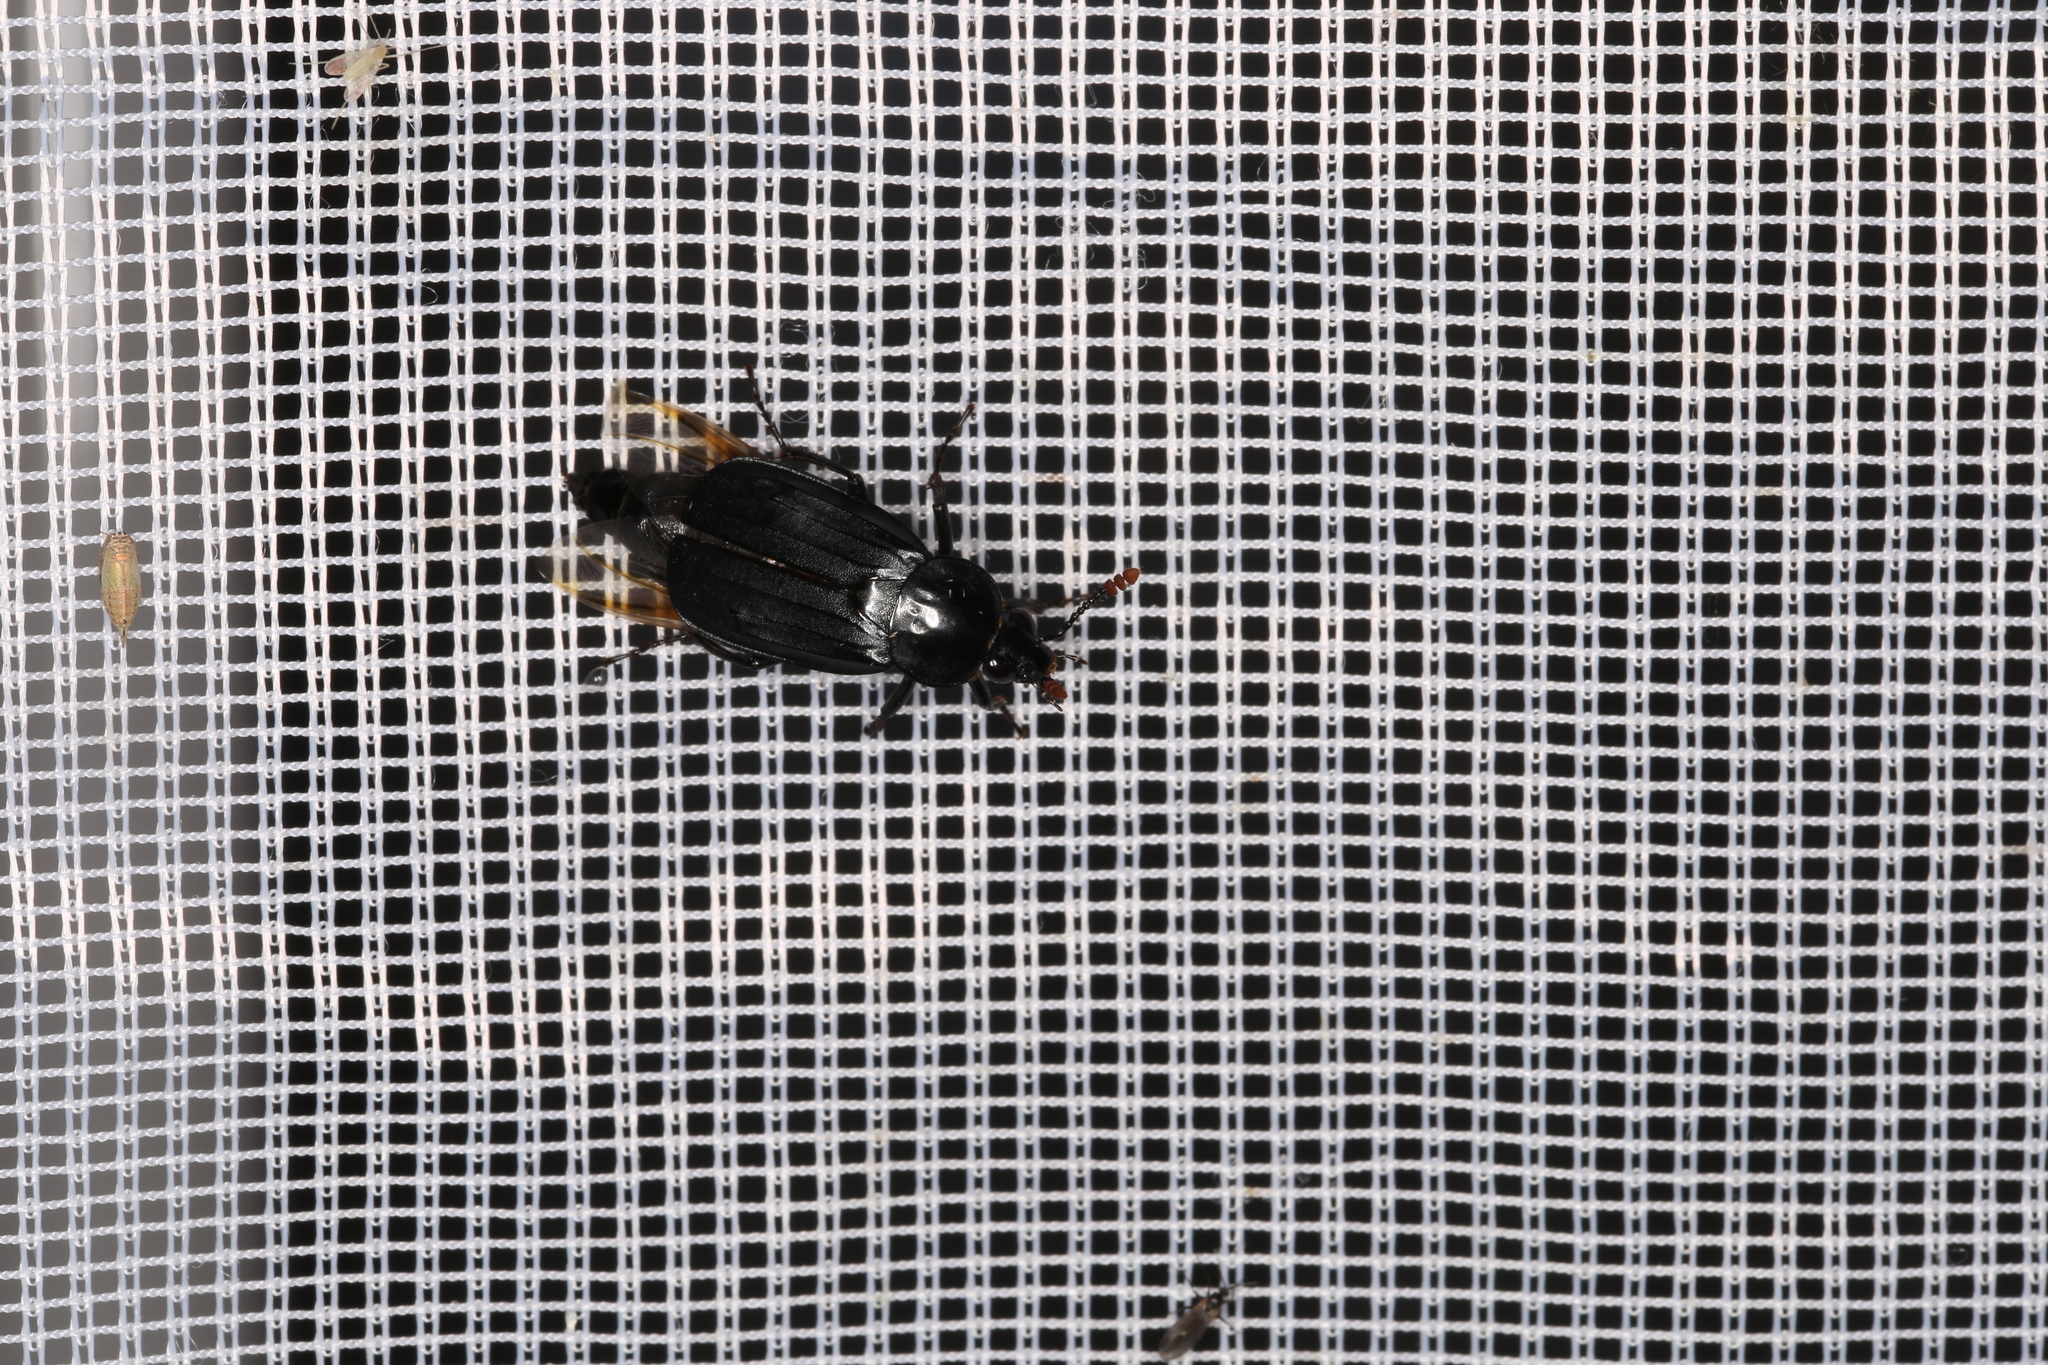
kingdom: Animalia
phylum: Arthropoda
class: Insecta
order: Coleoptera
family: Staphylinidae
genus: Necrodes
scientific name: Necrodes littoralis
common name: Shore sexton beetle
